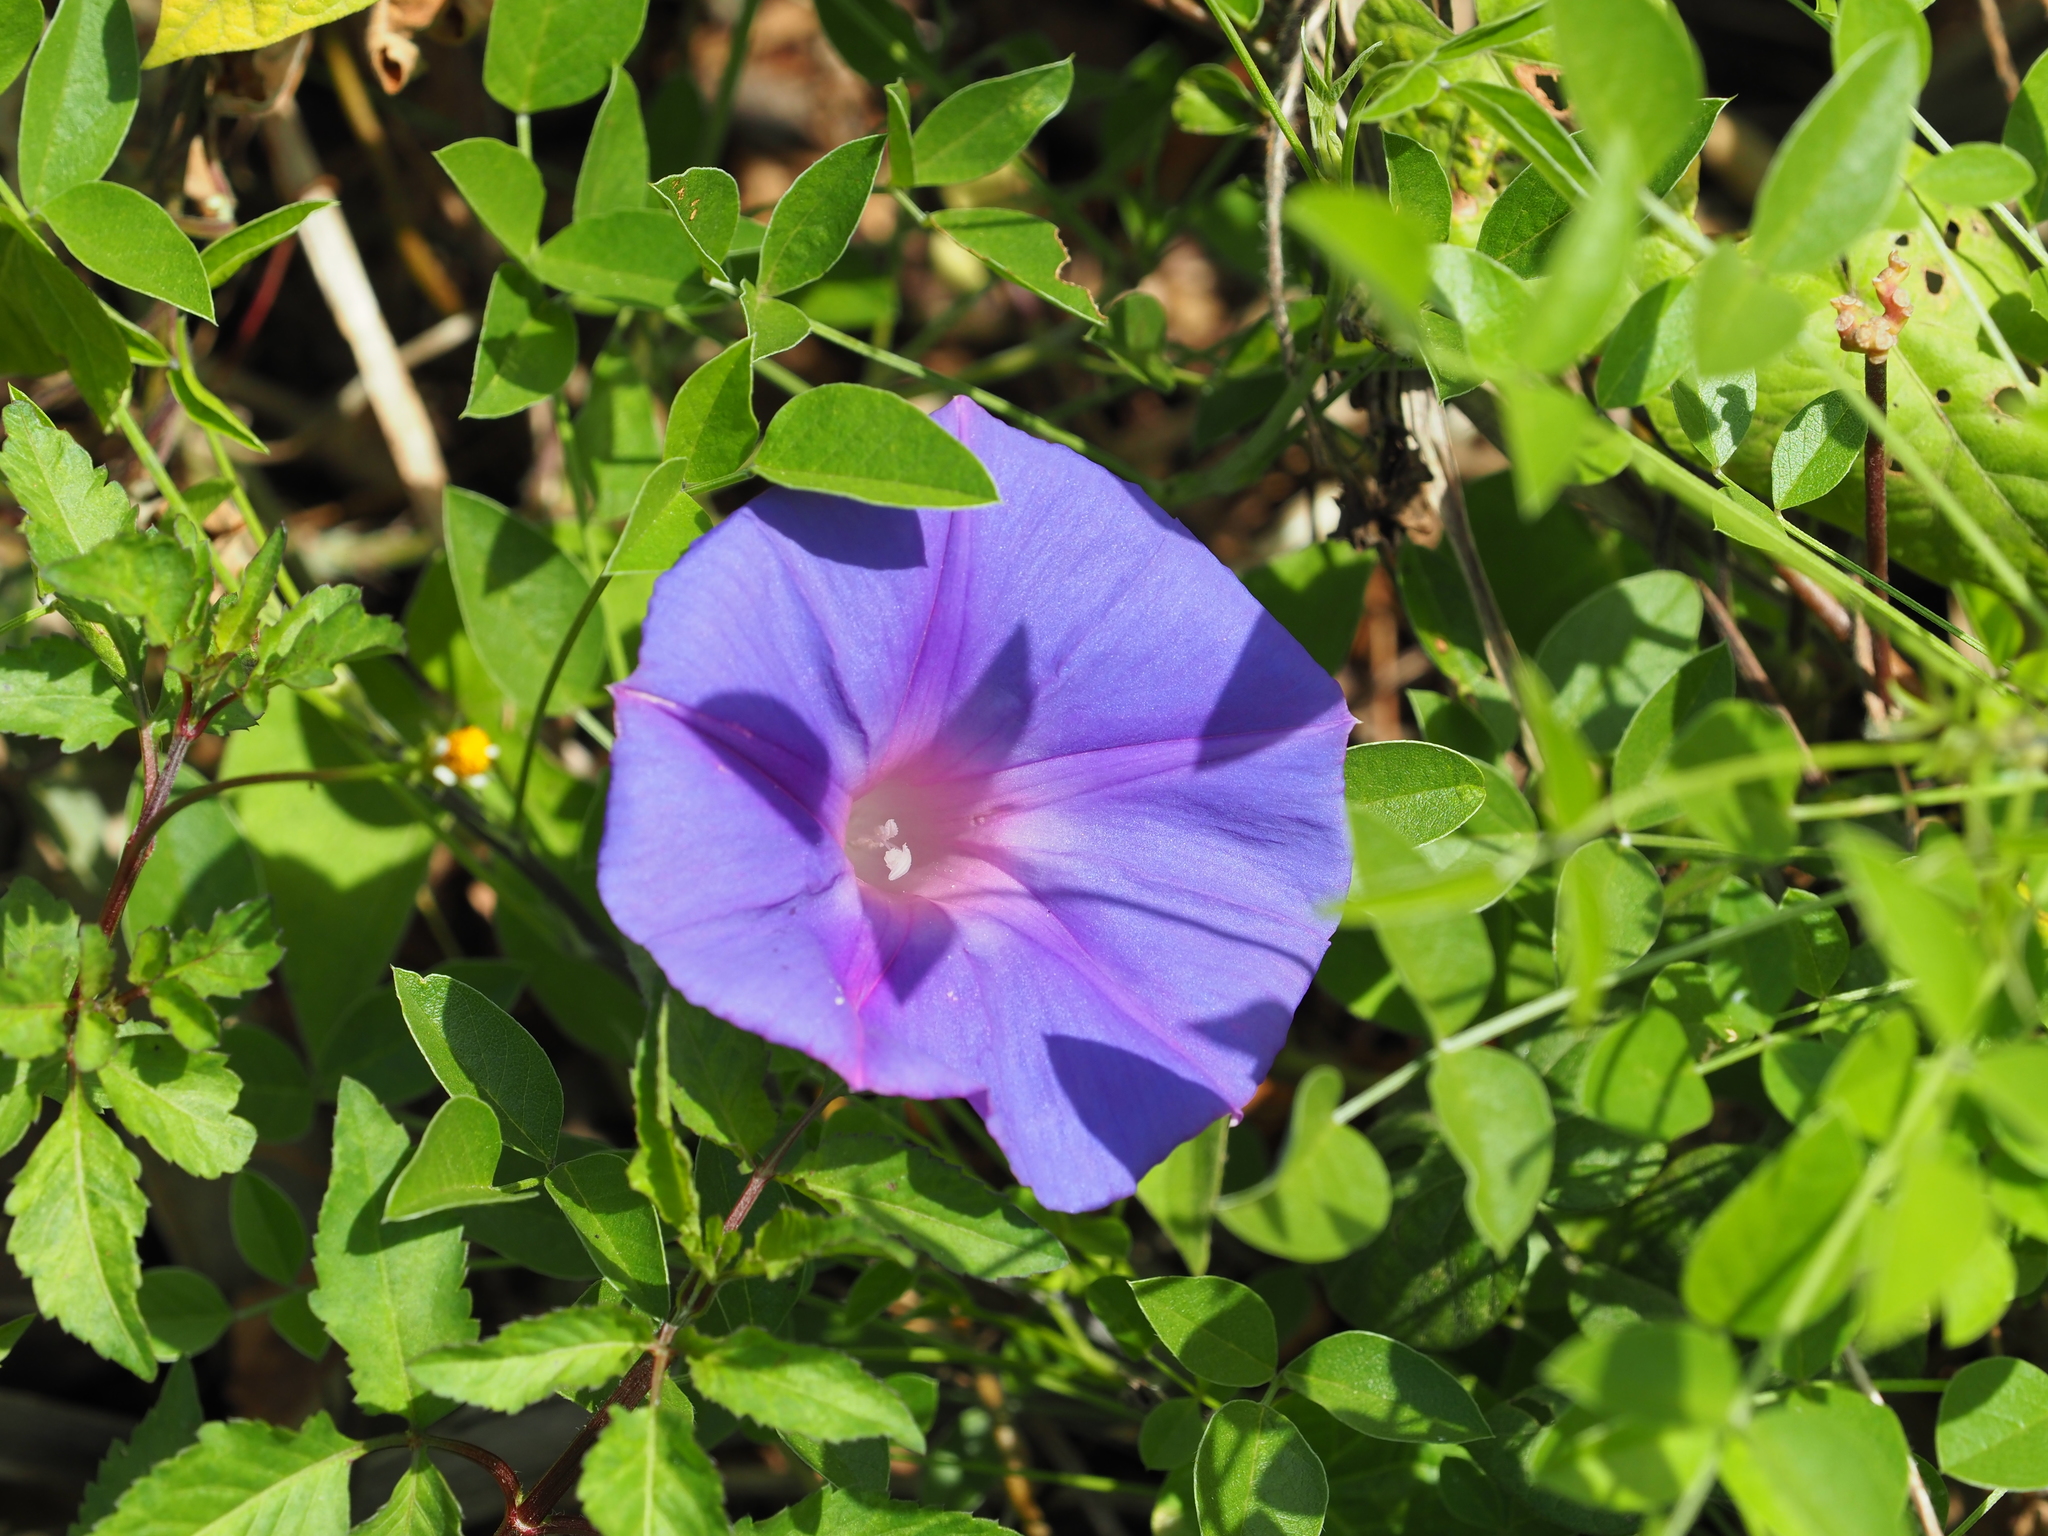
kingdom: Plantae
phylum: Tracheophyta
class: Magnoliopsida
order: Solanales
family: Convolvulaceae
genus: Ipomoea
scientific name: Ipomoea indica
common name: Blue dawnflower
